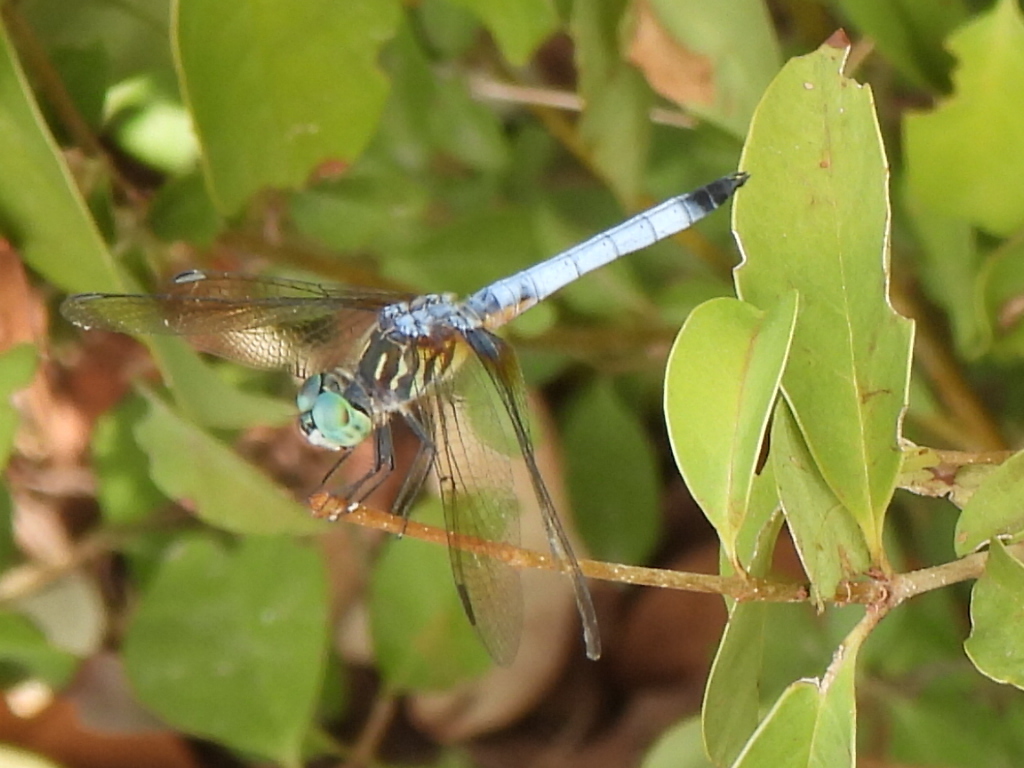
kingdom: Animalia
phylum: Arthropoda
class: Insecta
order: Odonata
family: Libellulidae
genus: Pachydiplax
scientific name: Pachydiplax longipennis
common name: Blue dasher
